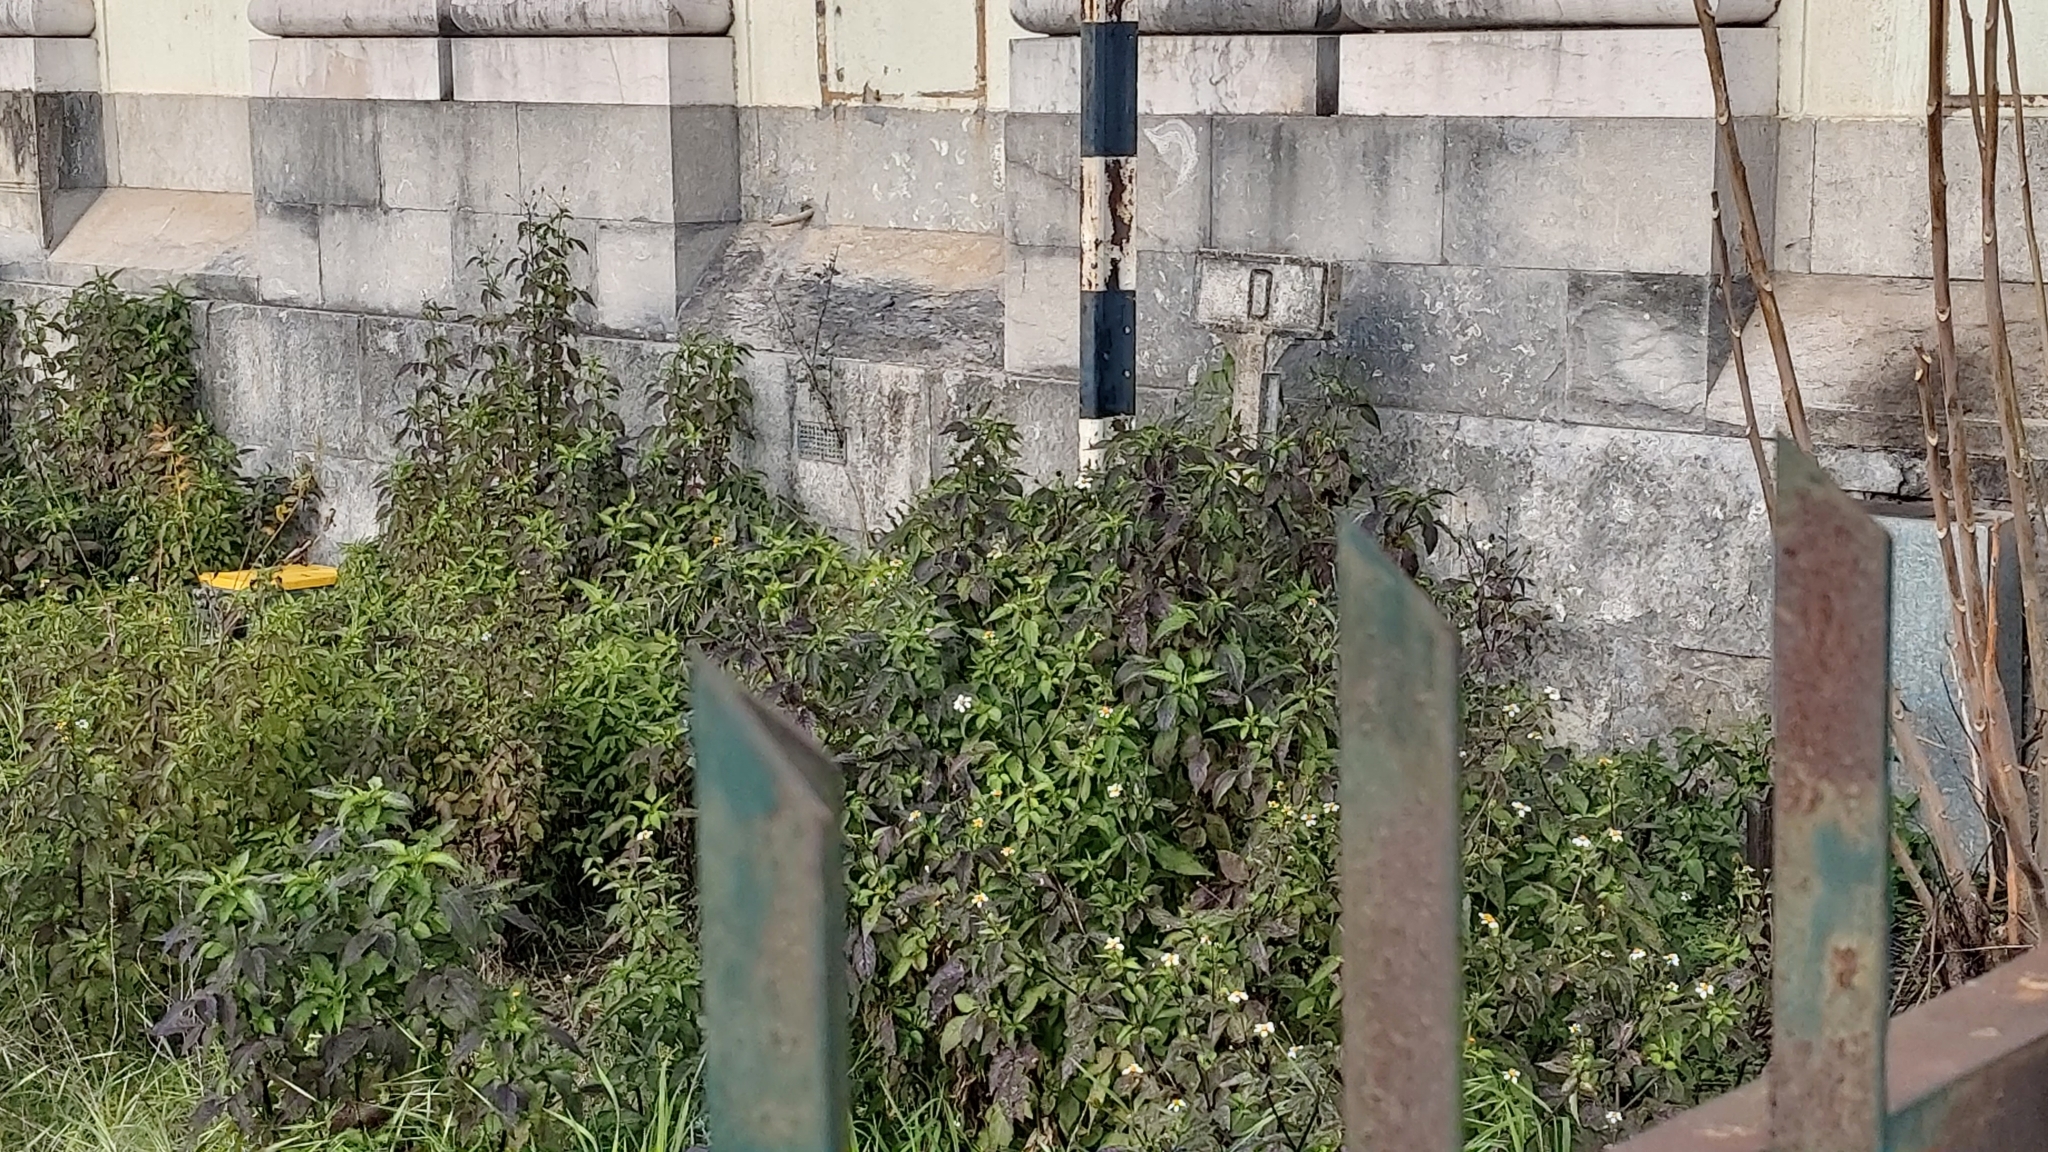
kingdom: Plantae
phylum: Tracheophyta
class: Magnoliopsida
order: Asterales
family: Asteraceae
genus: Bidens
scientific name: Bidens pilosa
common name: Black-jack
